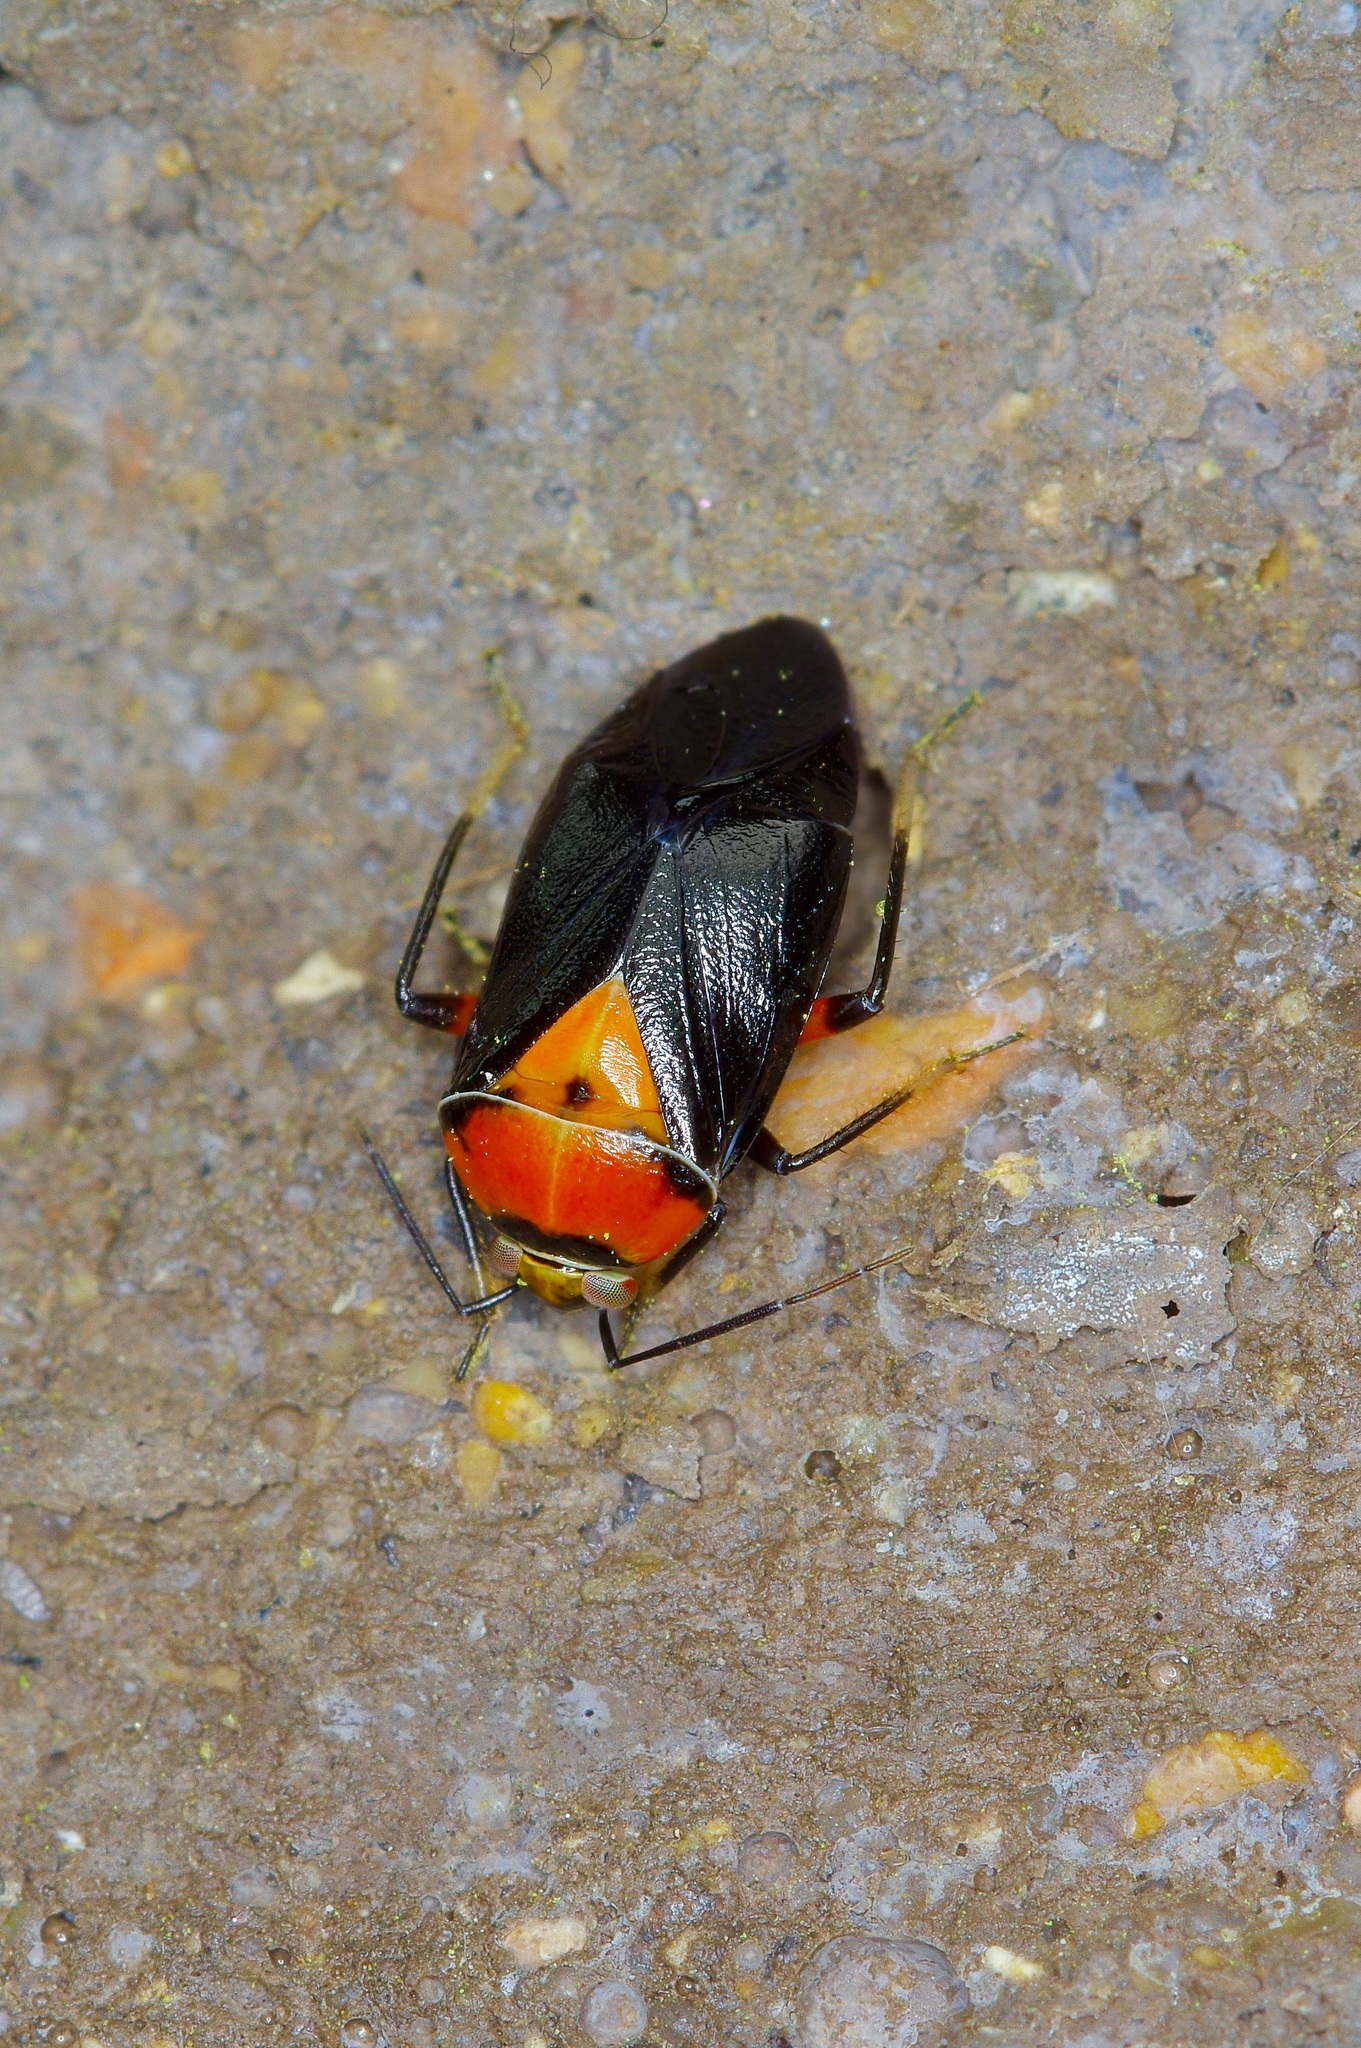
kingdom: Animalia
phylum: Arthropoda
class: Insecta
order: Hemiptera
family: Miridae
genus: Neocapsus
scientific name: Neocapsus cuneatus
